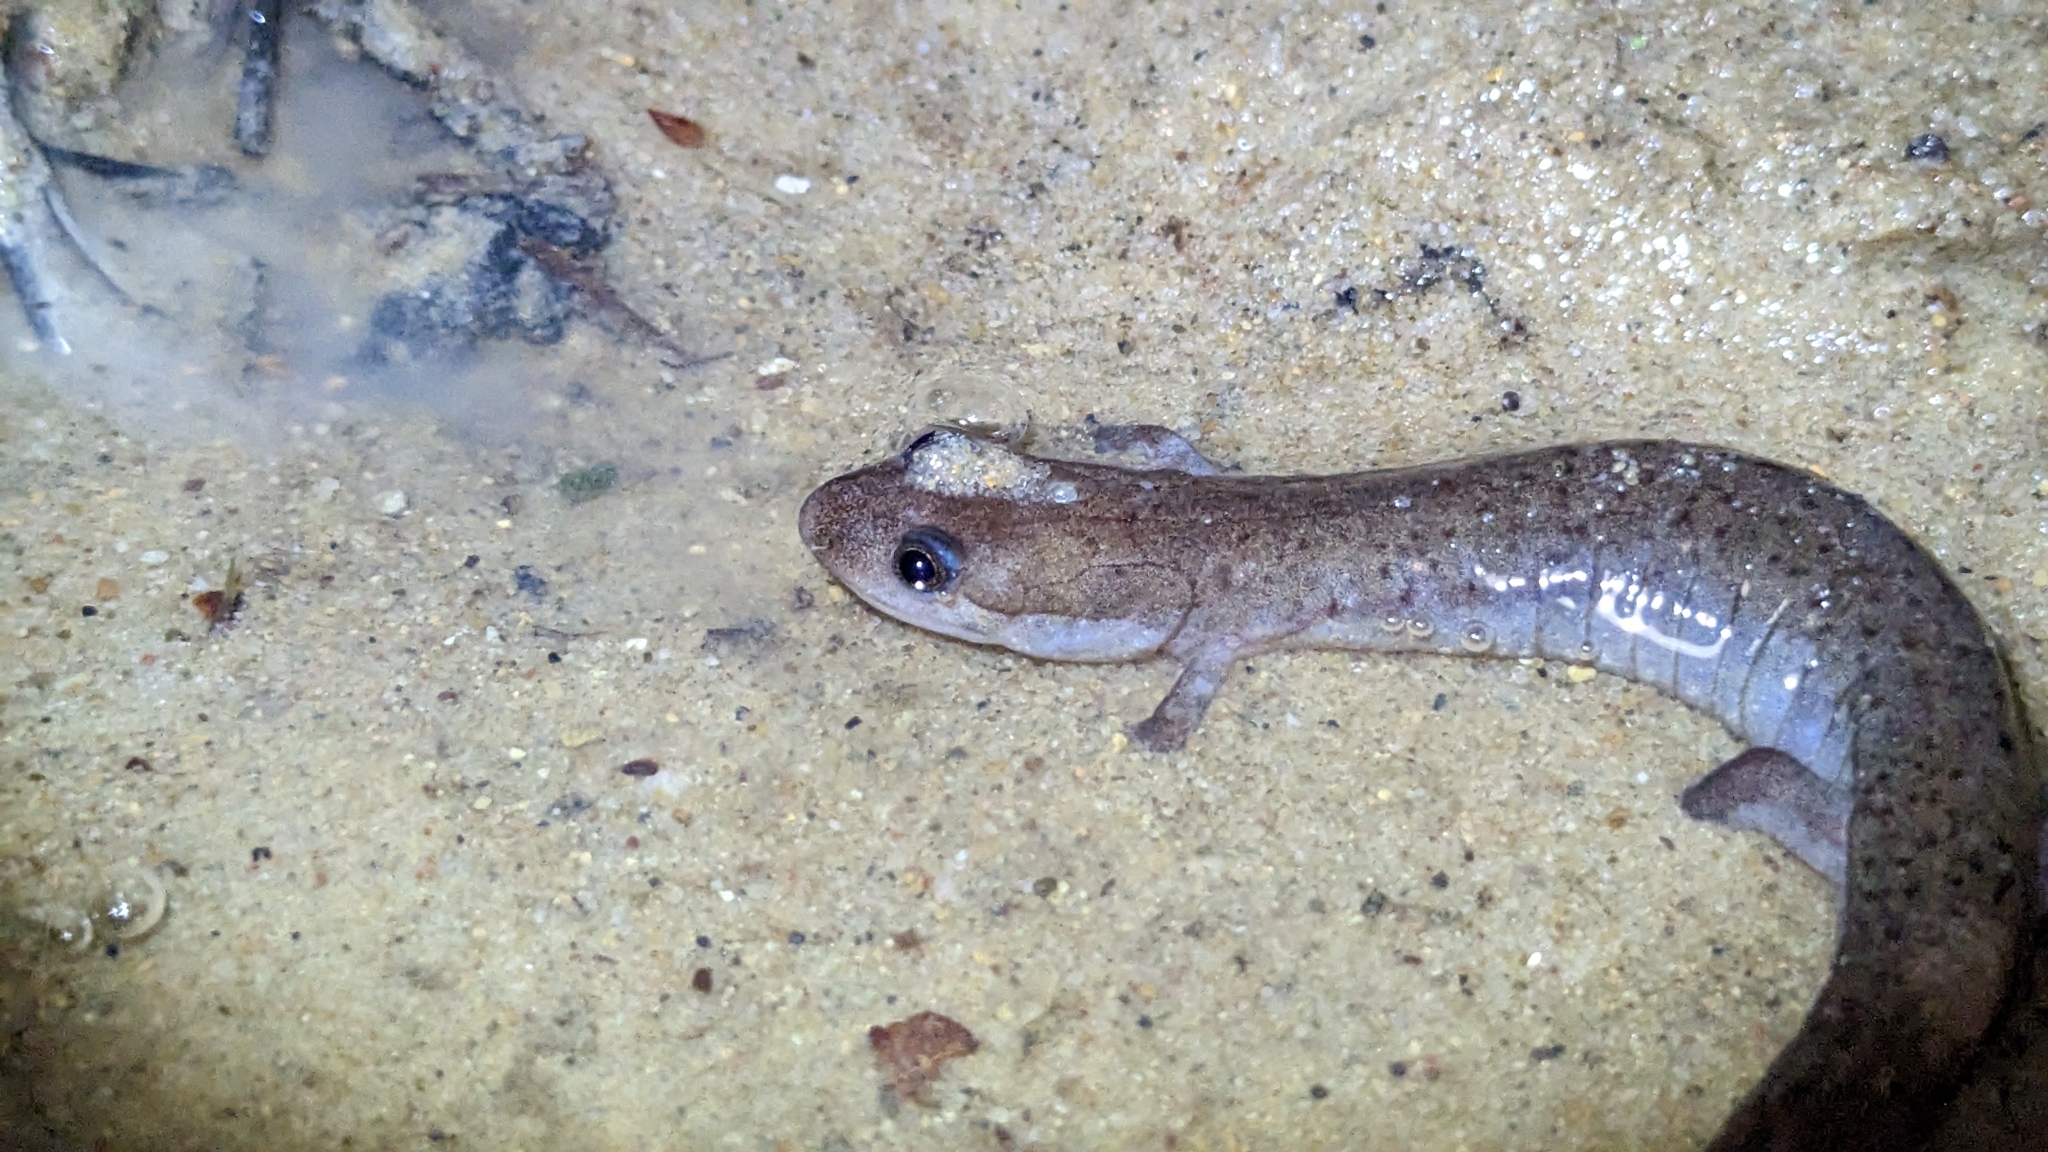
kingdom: Animalia
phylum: Chordata
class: Amphibia
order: Caudata
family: Plethodontidae
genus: Desmognathus
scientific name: Desmognathus
